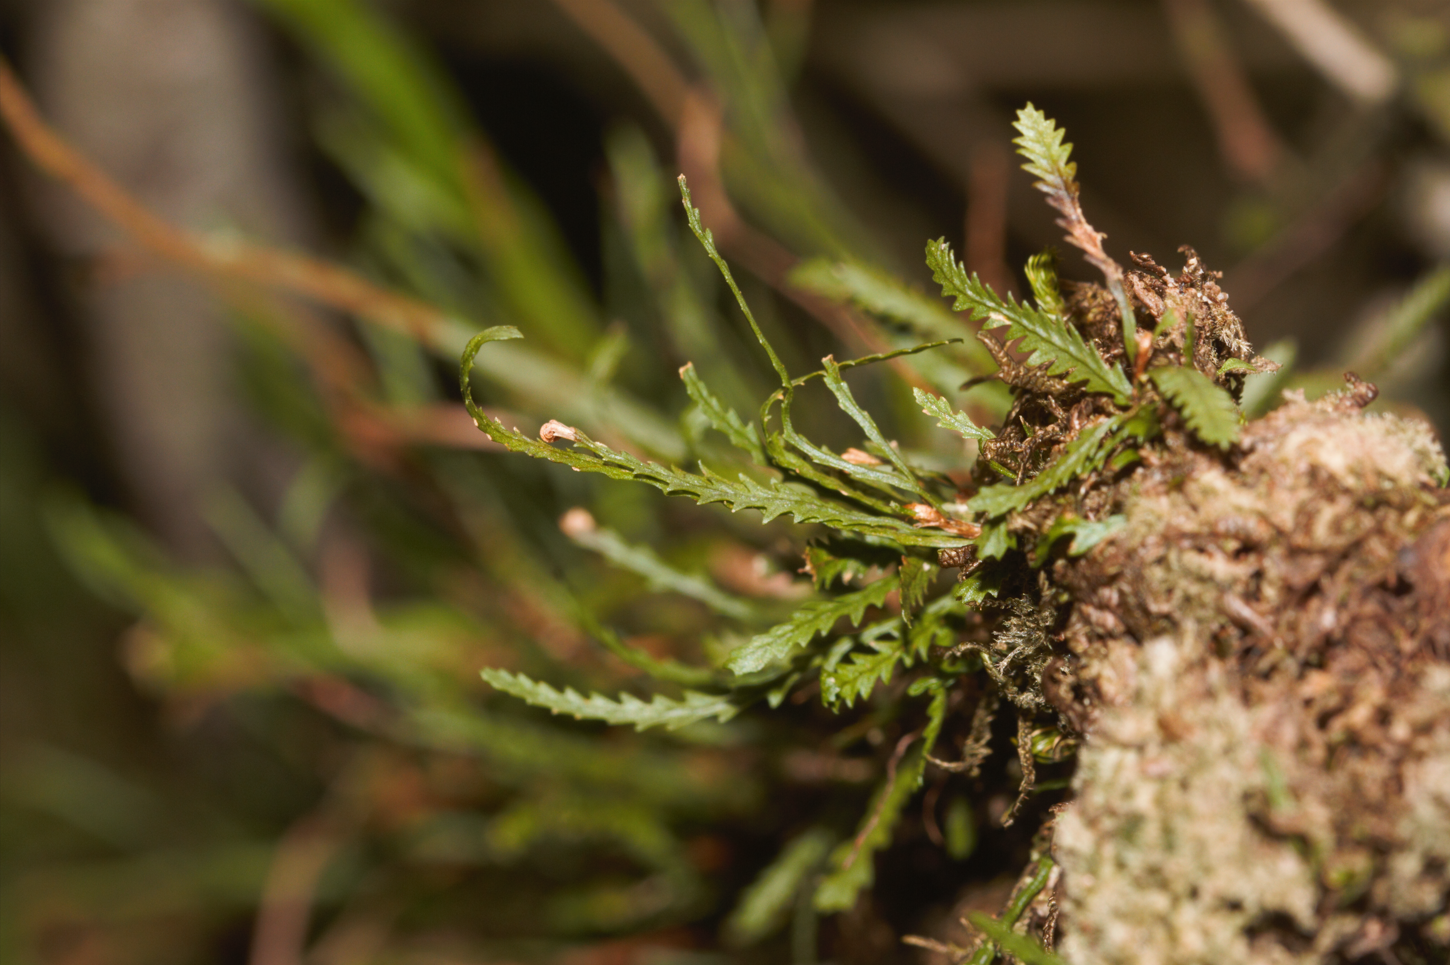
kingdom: Plantae
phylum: Tracheophyta
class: Polypodiopsida
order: Polypodiales
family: Polypodiaceae
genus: Cochlidium
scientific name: Cochlidium serrulatum
